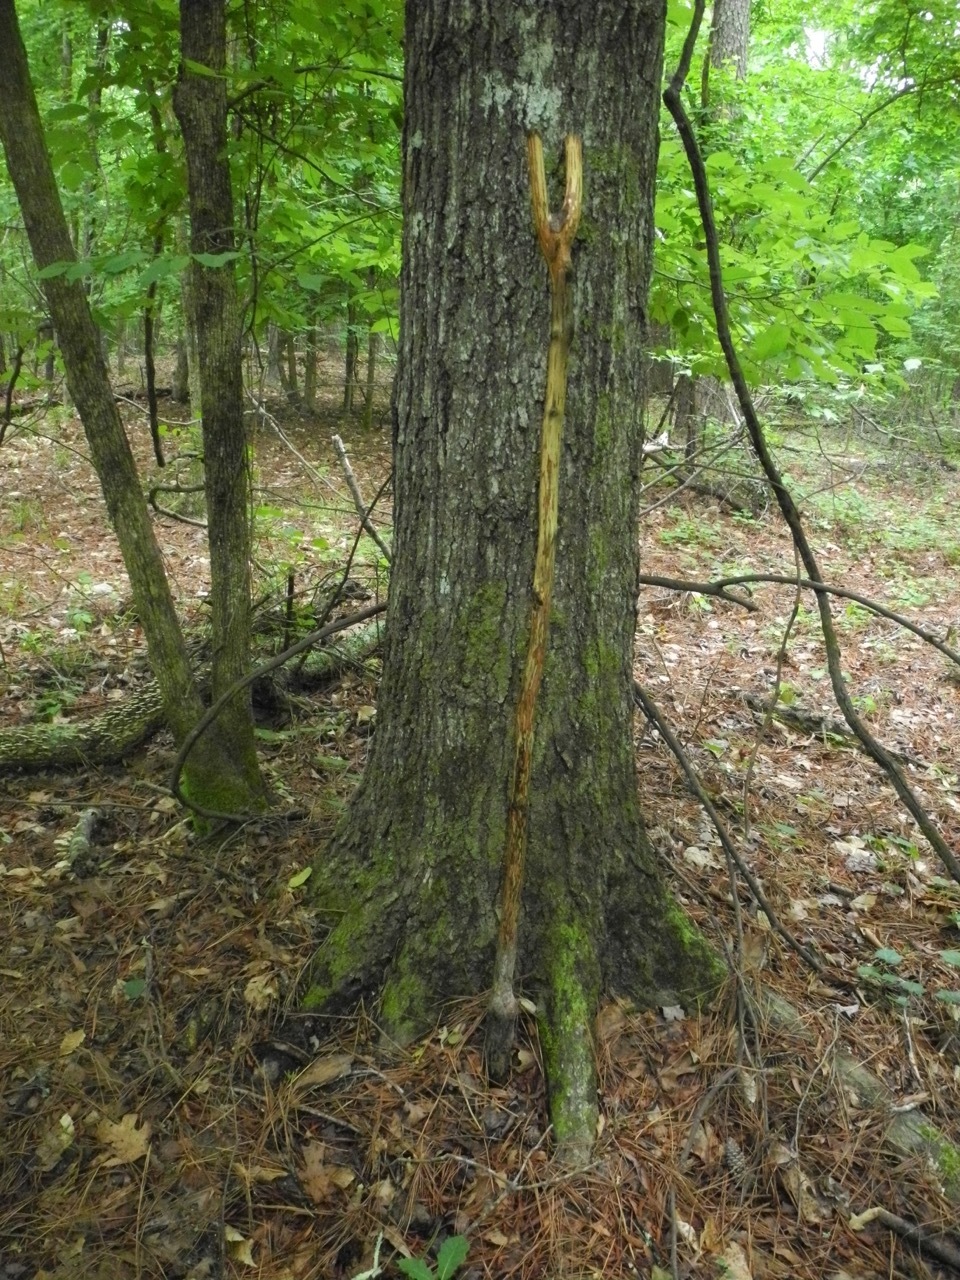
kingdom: Plantae
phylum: Tracheophyta
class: Magnoliopsida
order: Fagales
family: Fagaceae
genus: Quercus
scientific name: Quercus phellos
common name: Willow oak
